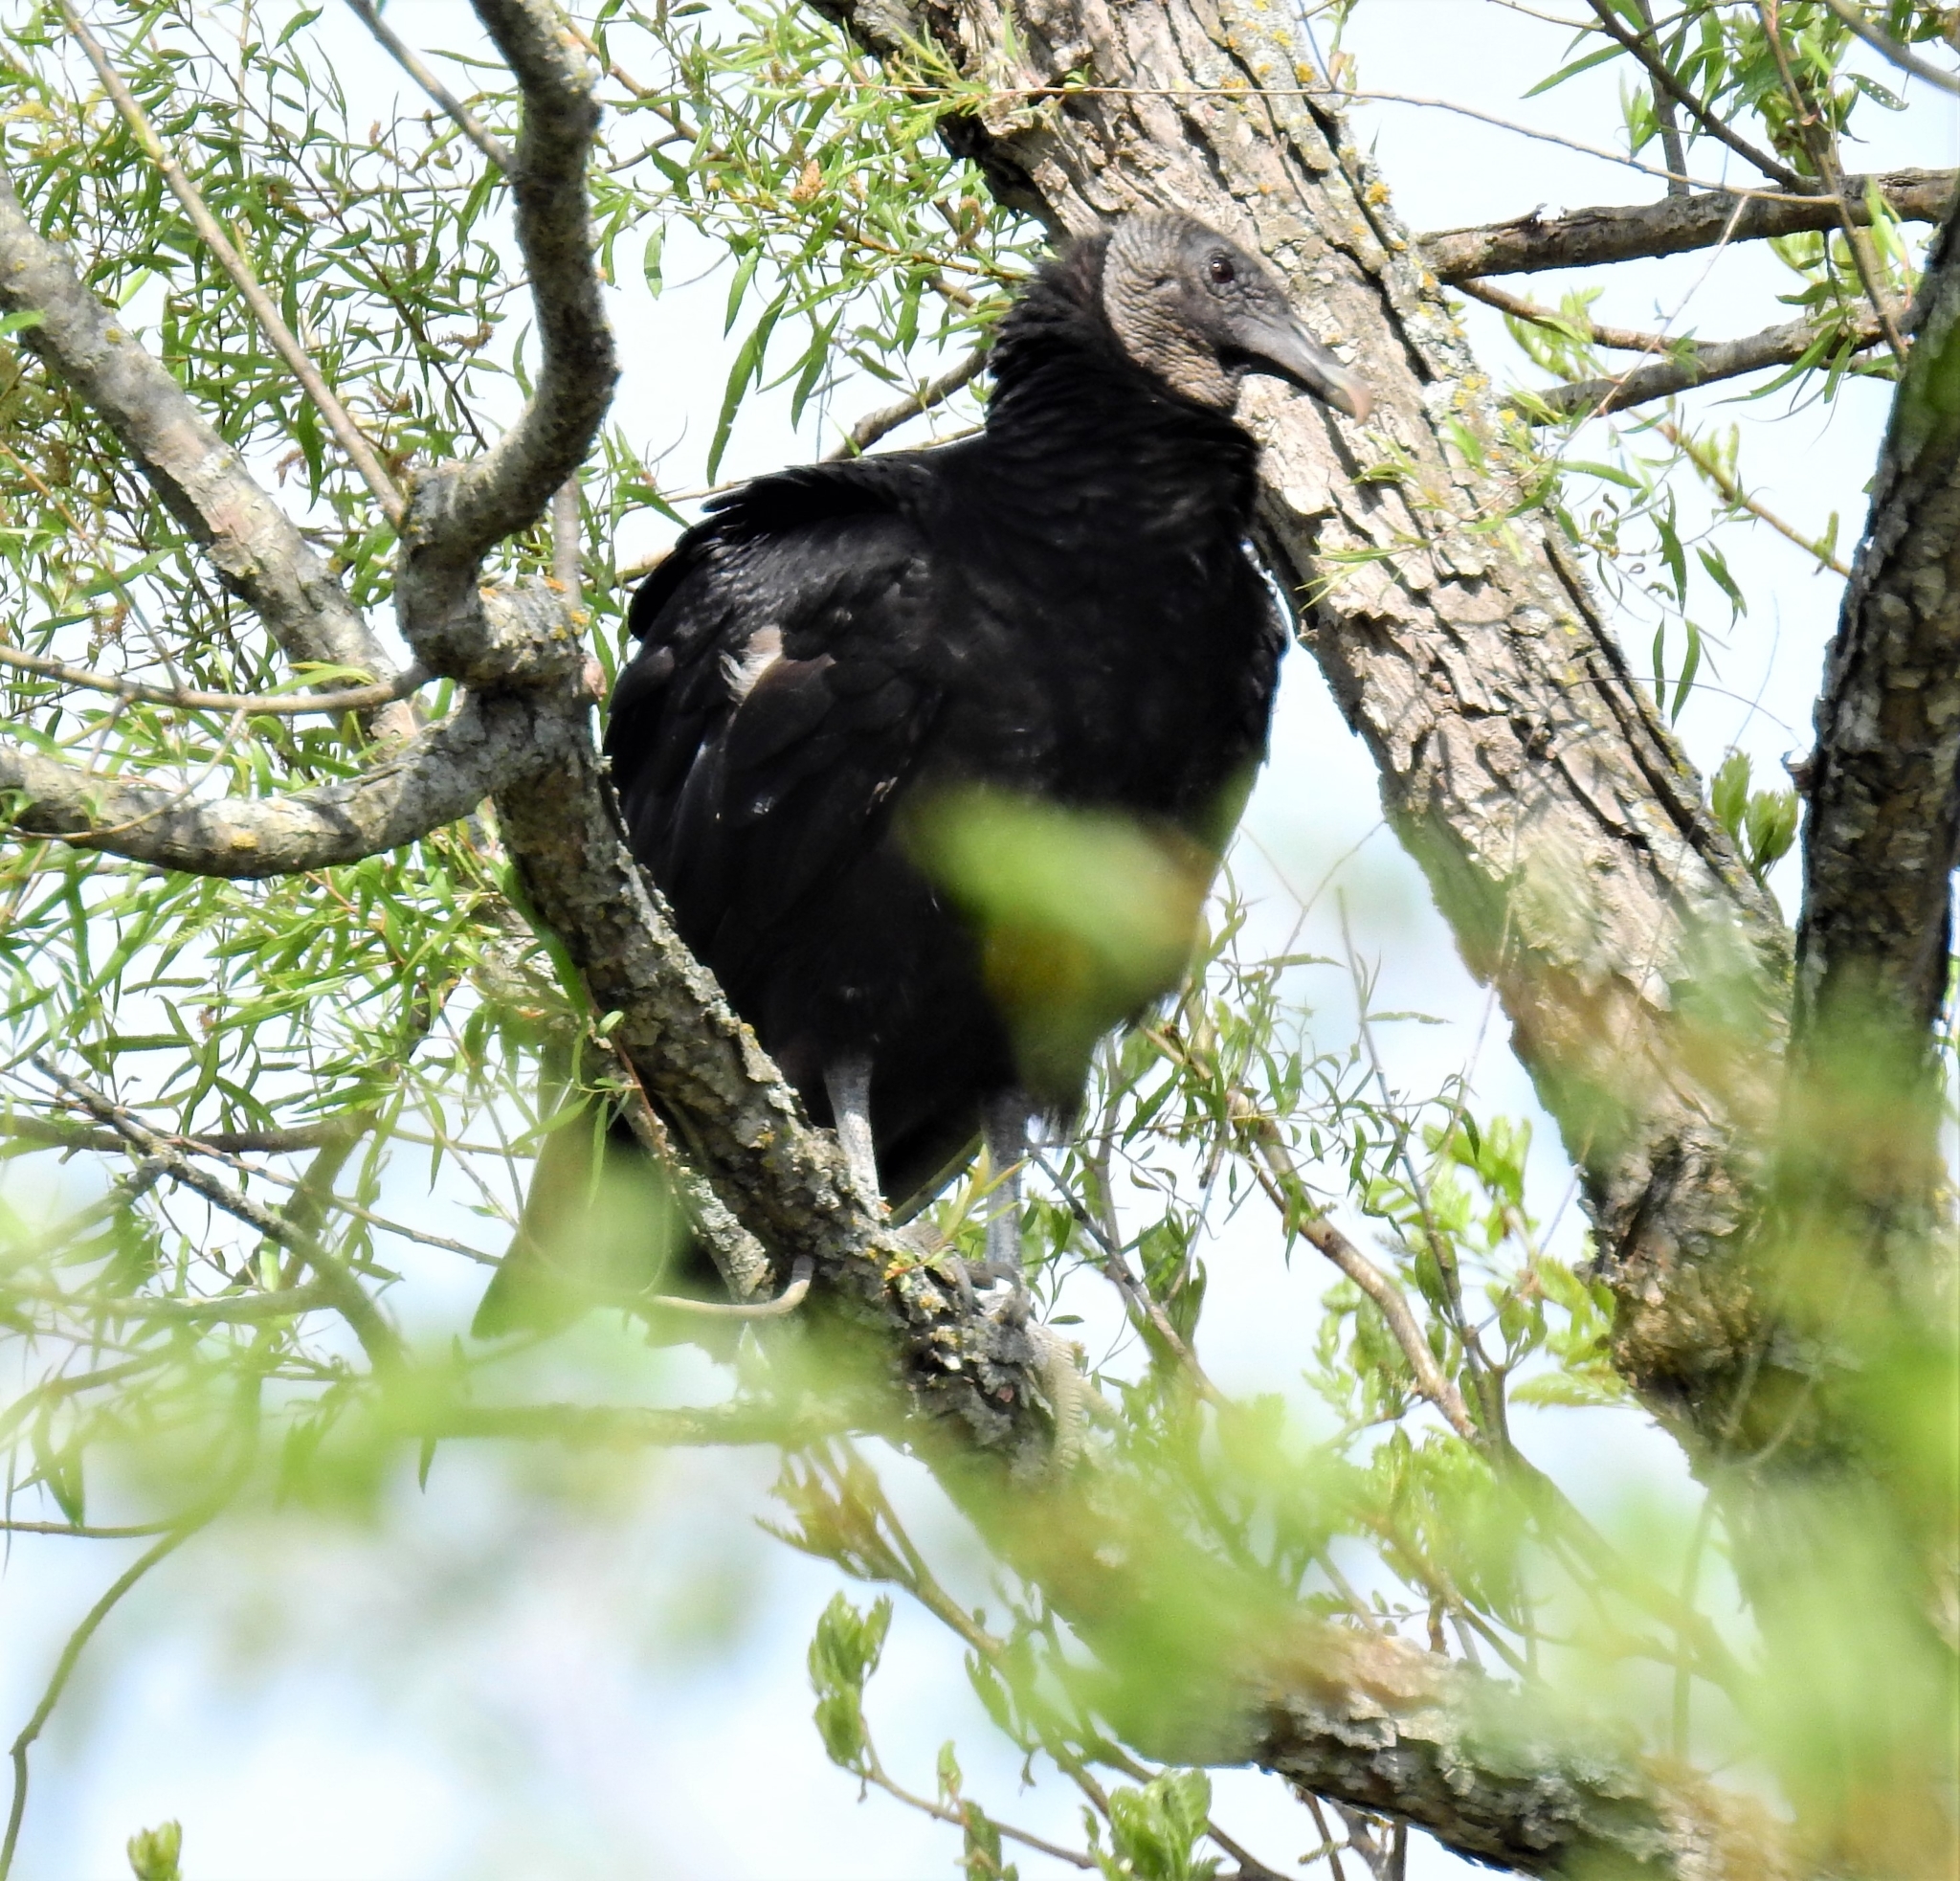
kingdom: Animalia
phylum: Chordata
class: Aves
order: Accipitriformes
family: Cathartidae
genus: Coragyps
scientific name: Coragyps atratus
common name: Black vulture
